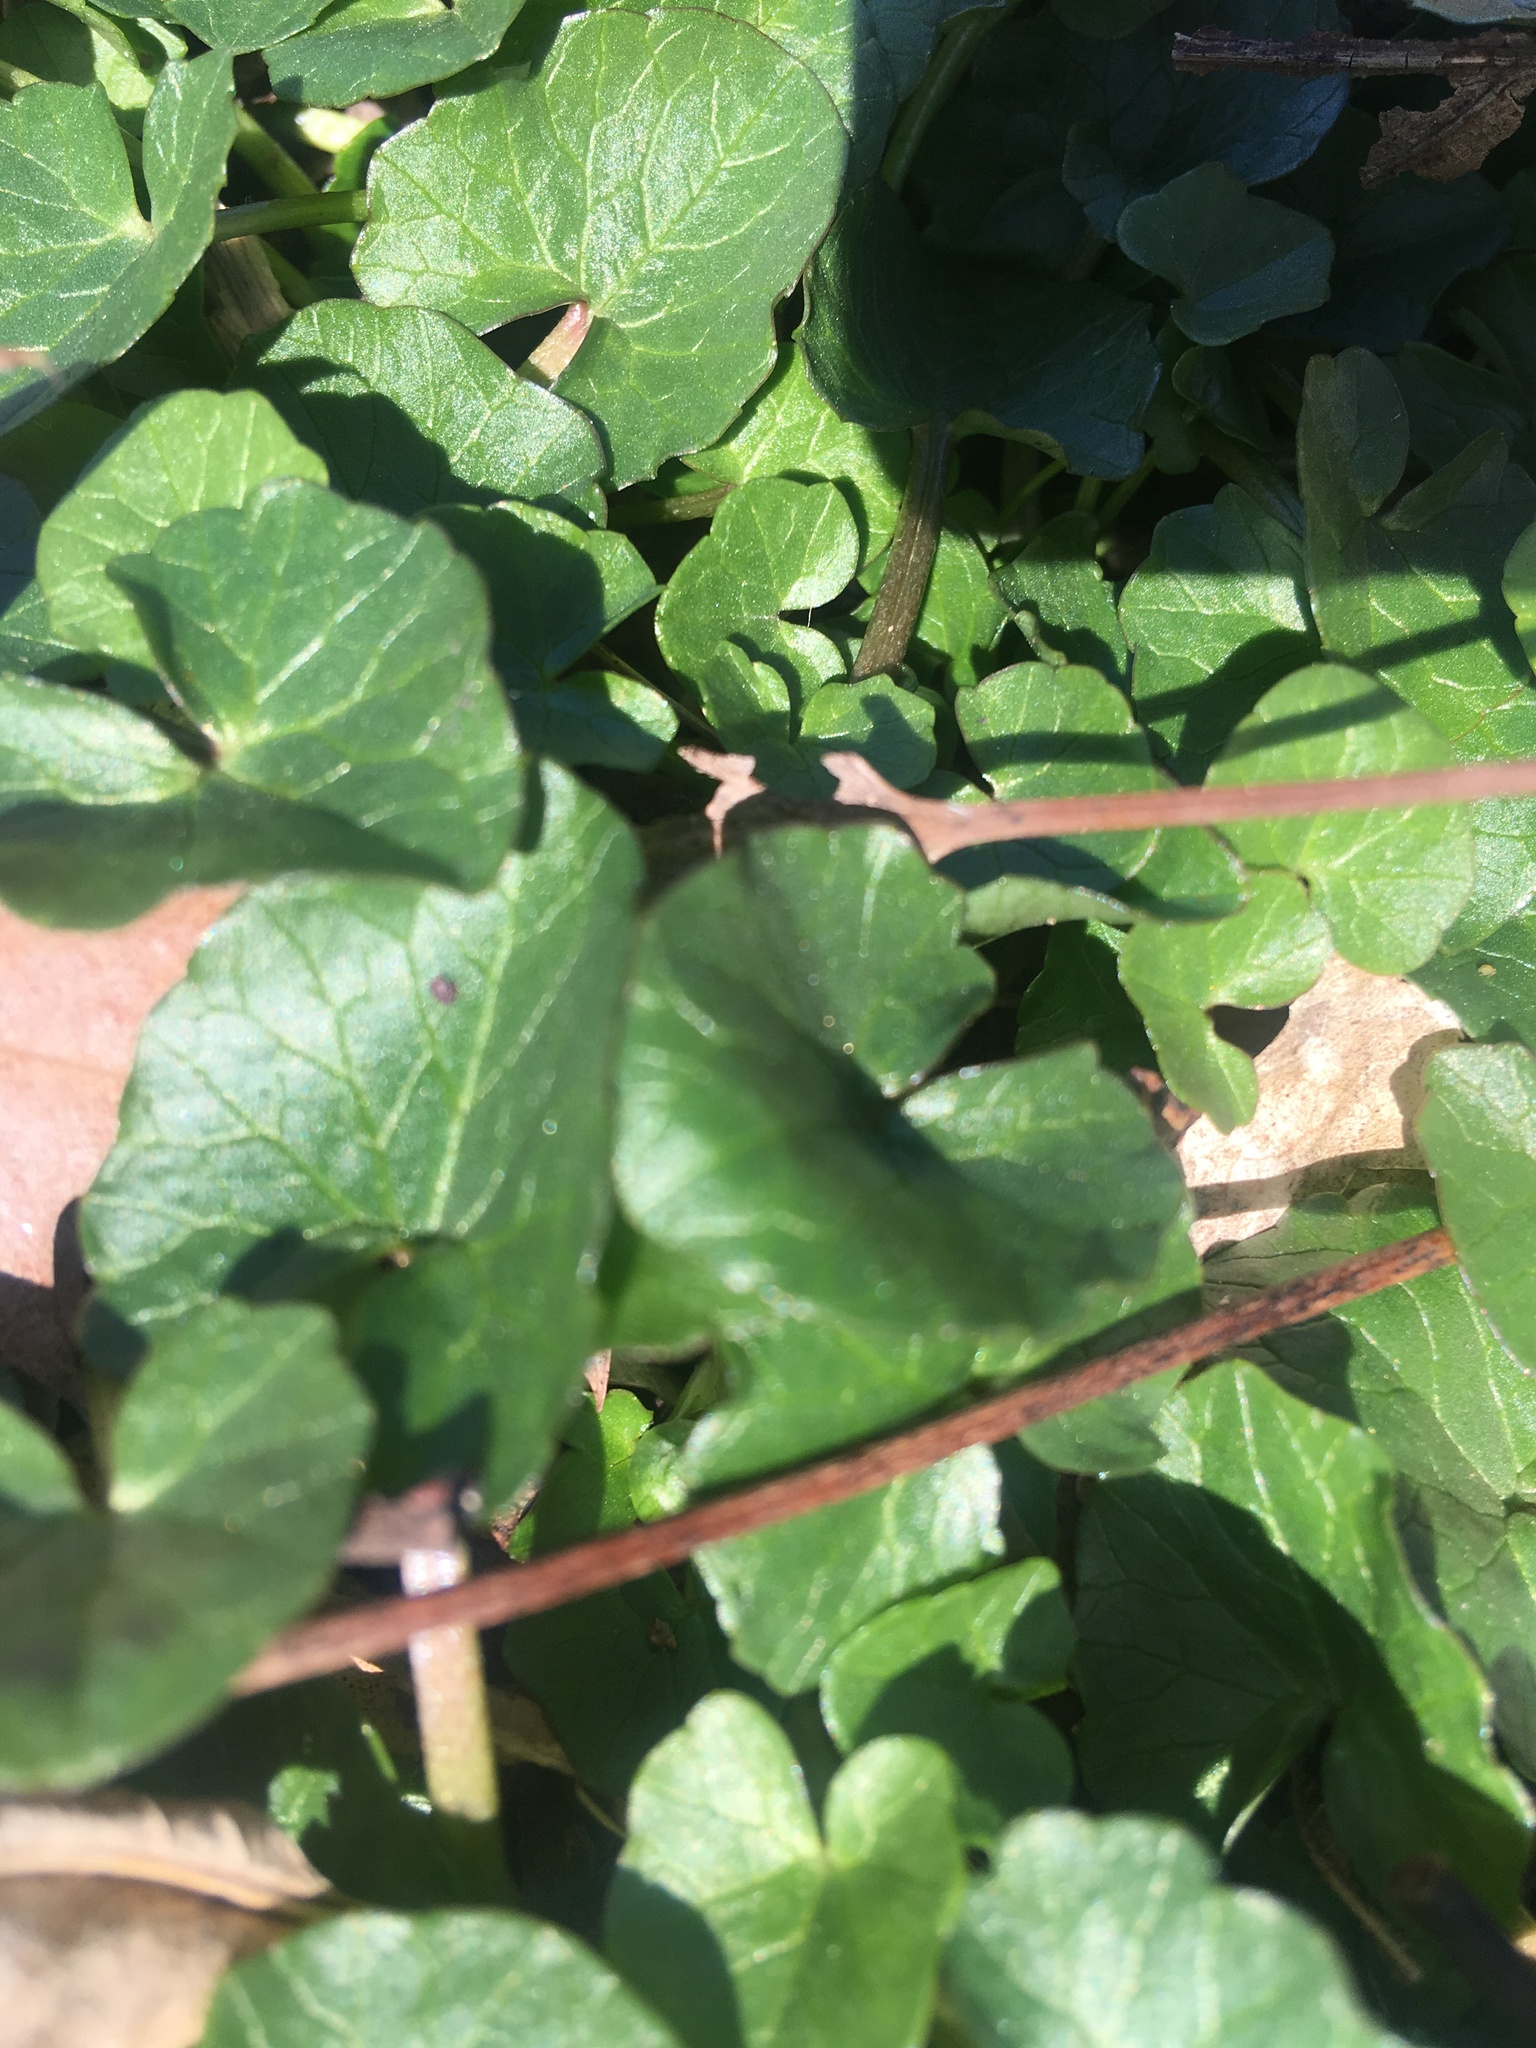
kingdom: Plantae
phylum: Tracheophyta
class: Magnoliopsida
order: Ranunculales
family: Ranunculaceae
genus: Ficaria
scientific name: Ficaria verna
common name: Lesser celandine
